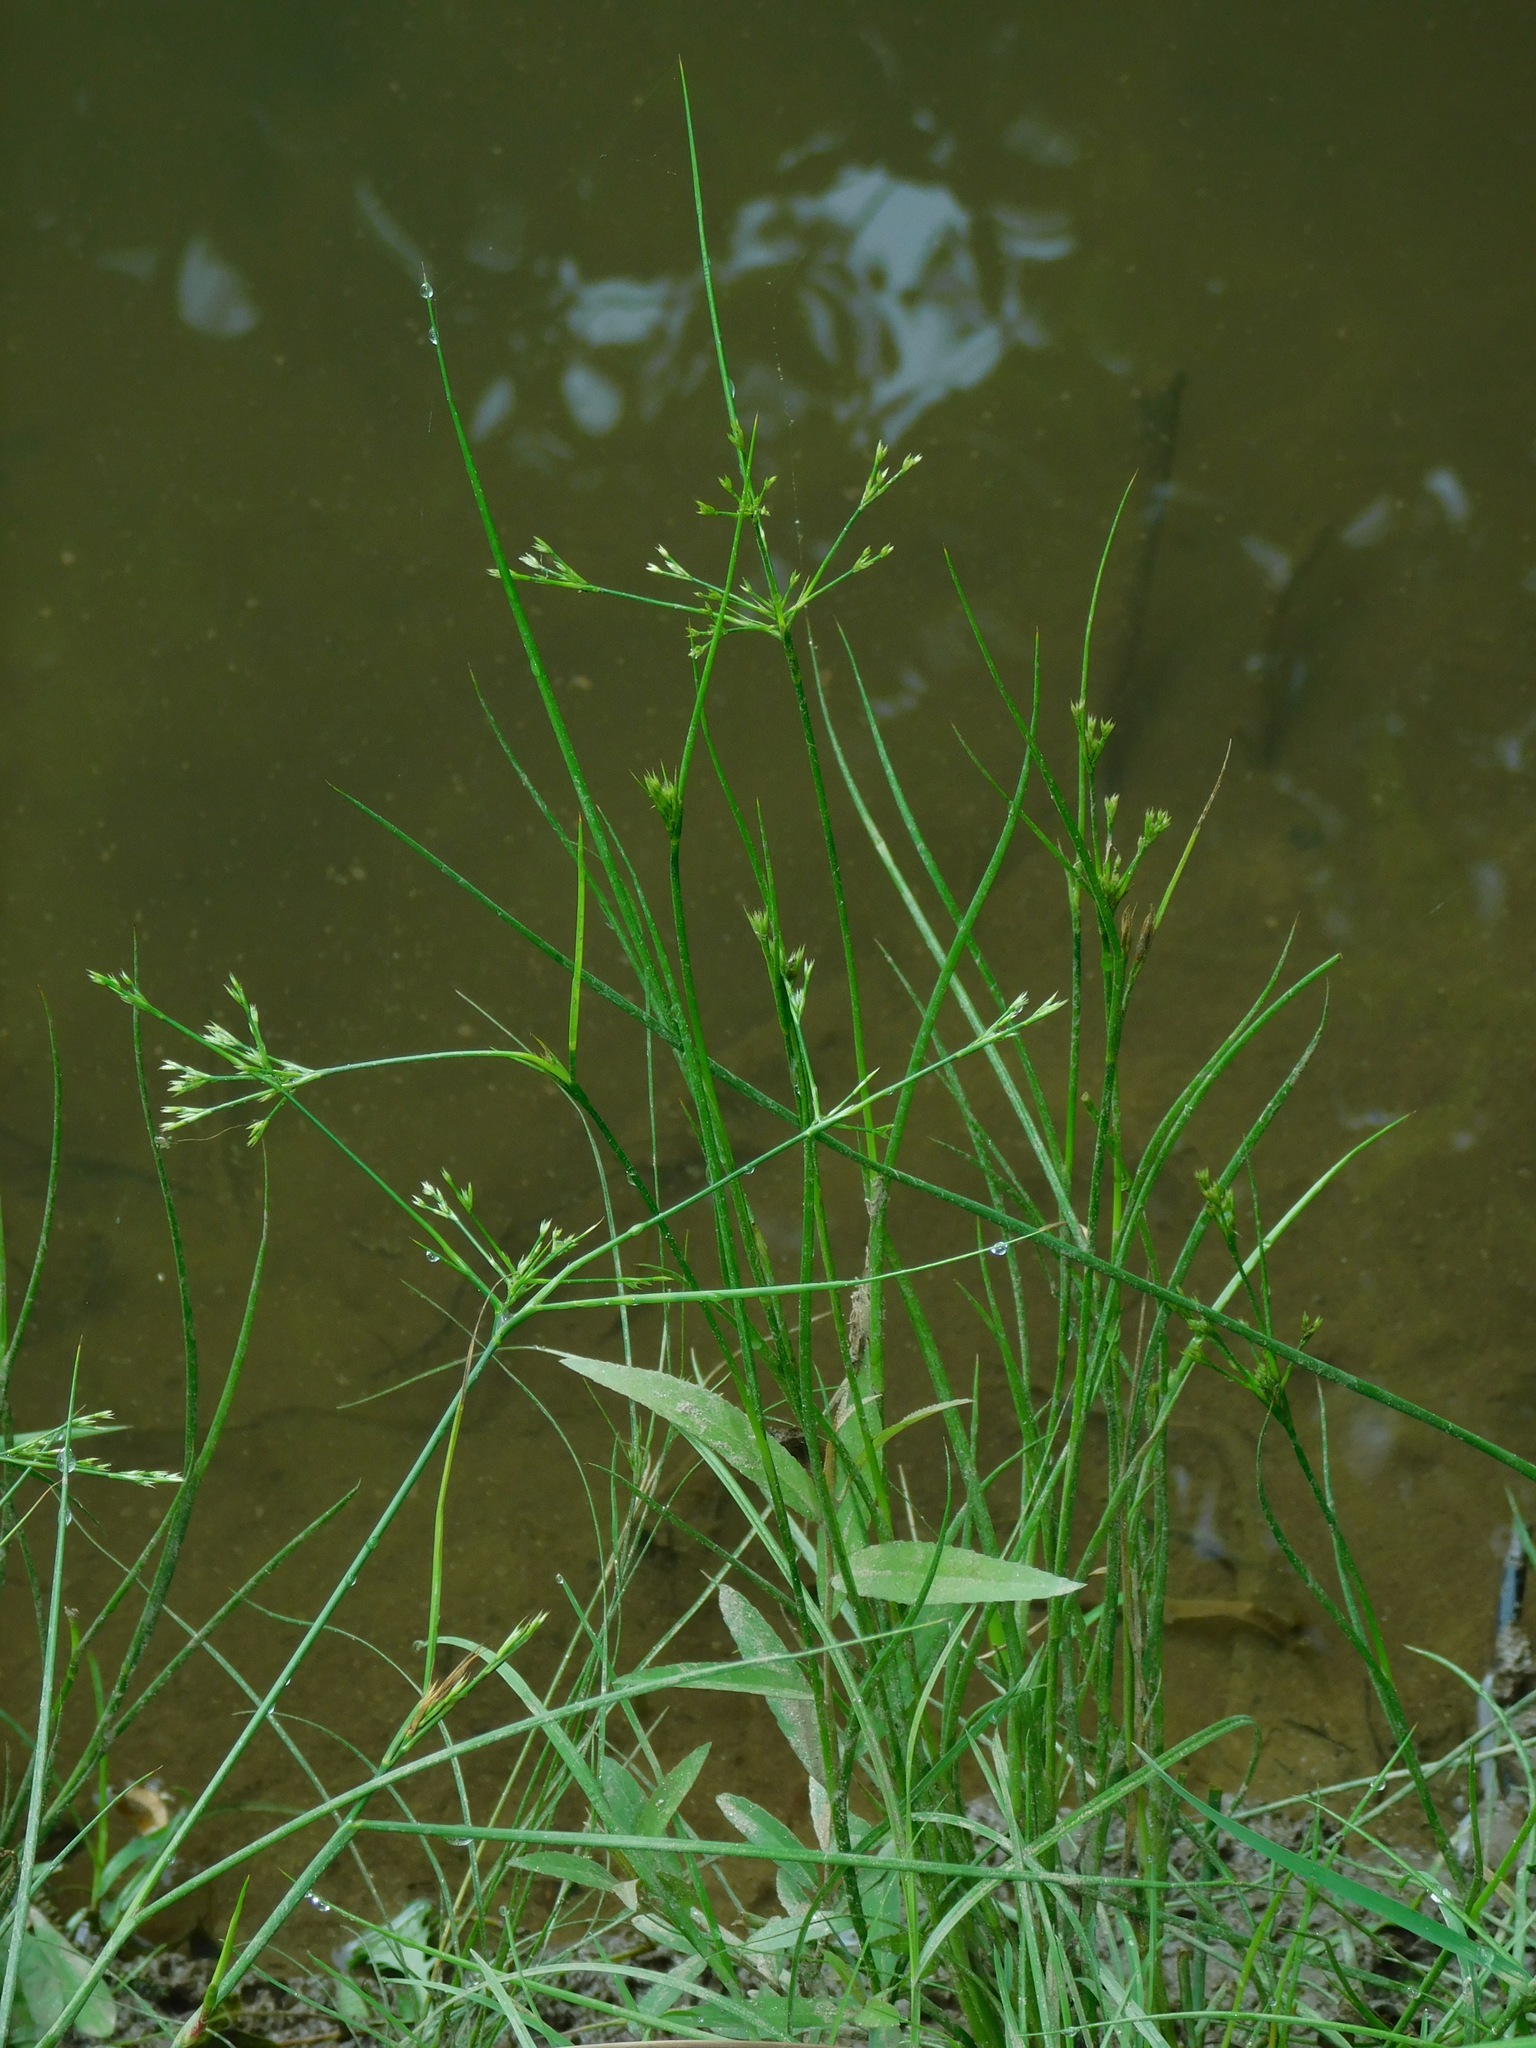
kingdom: Plantae
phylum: Tracheophyta
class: Liliopsida
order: Poales
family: Juncaceae
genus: Juncus
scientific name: Juncus diffusissimus
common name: Slimpod rush
